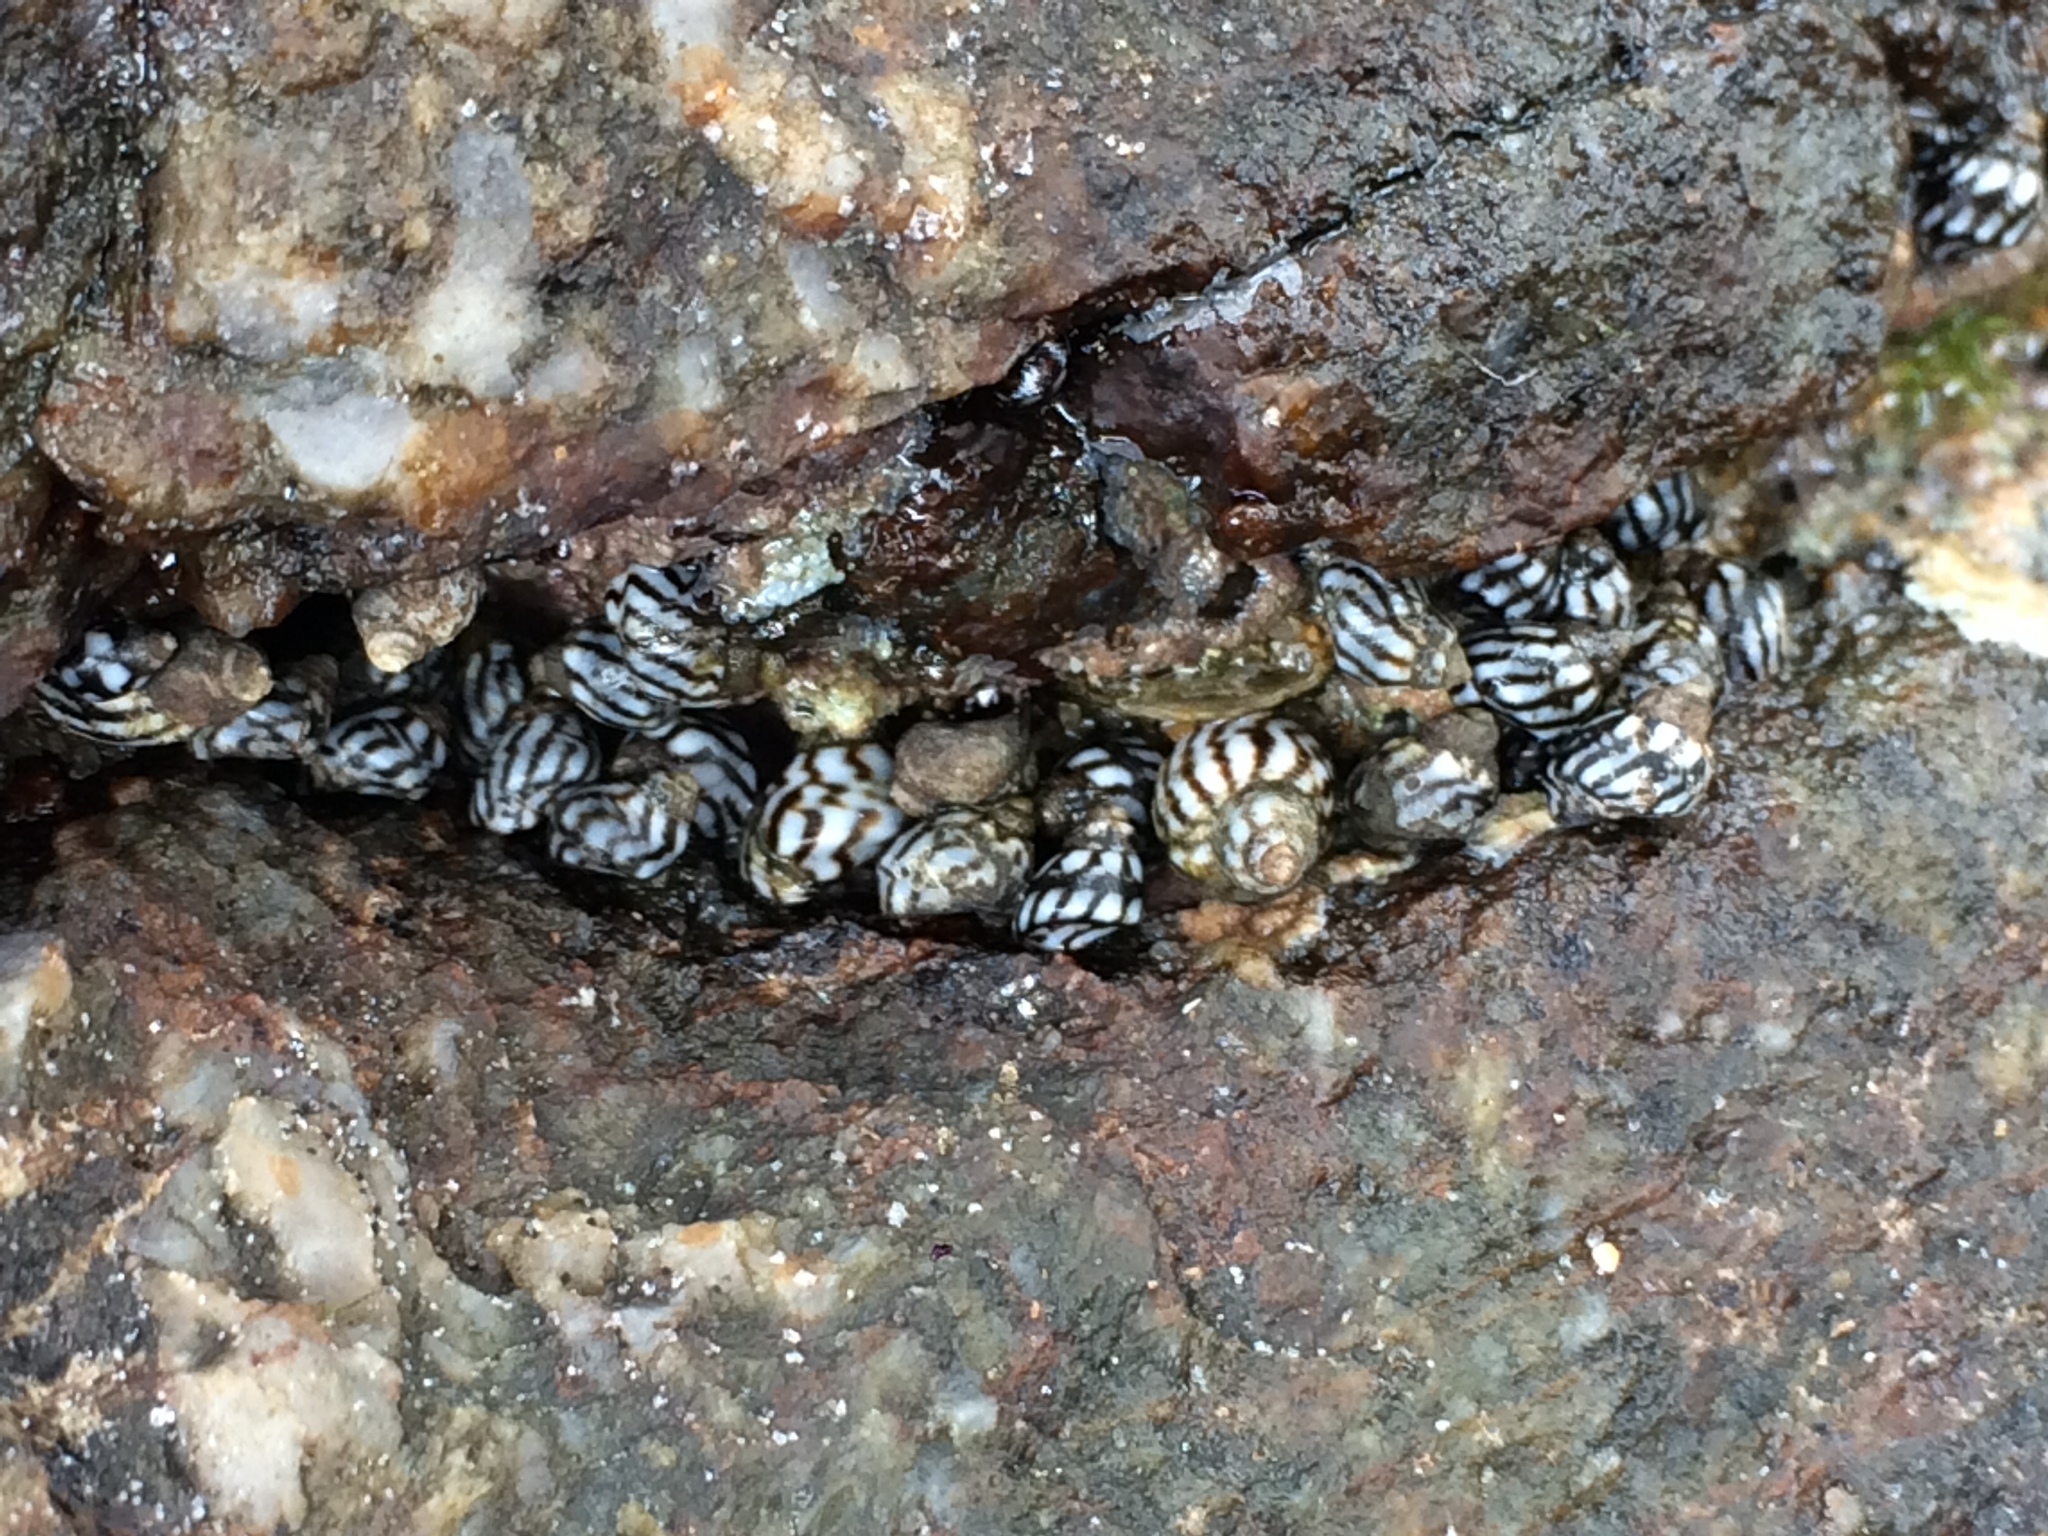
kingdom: Animalia
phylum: Mollusca
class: Gastropoda
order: Littorinimorpha
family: Littorinidae
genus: Echinolittorina
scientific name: Echinolittorina lineolata
